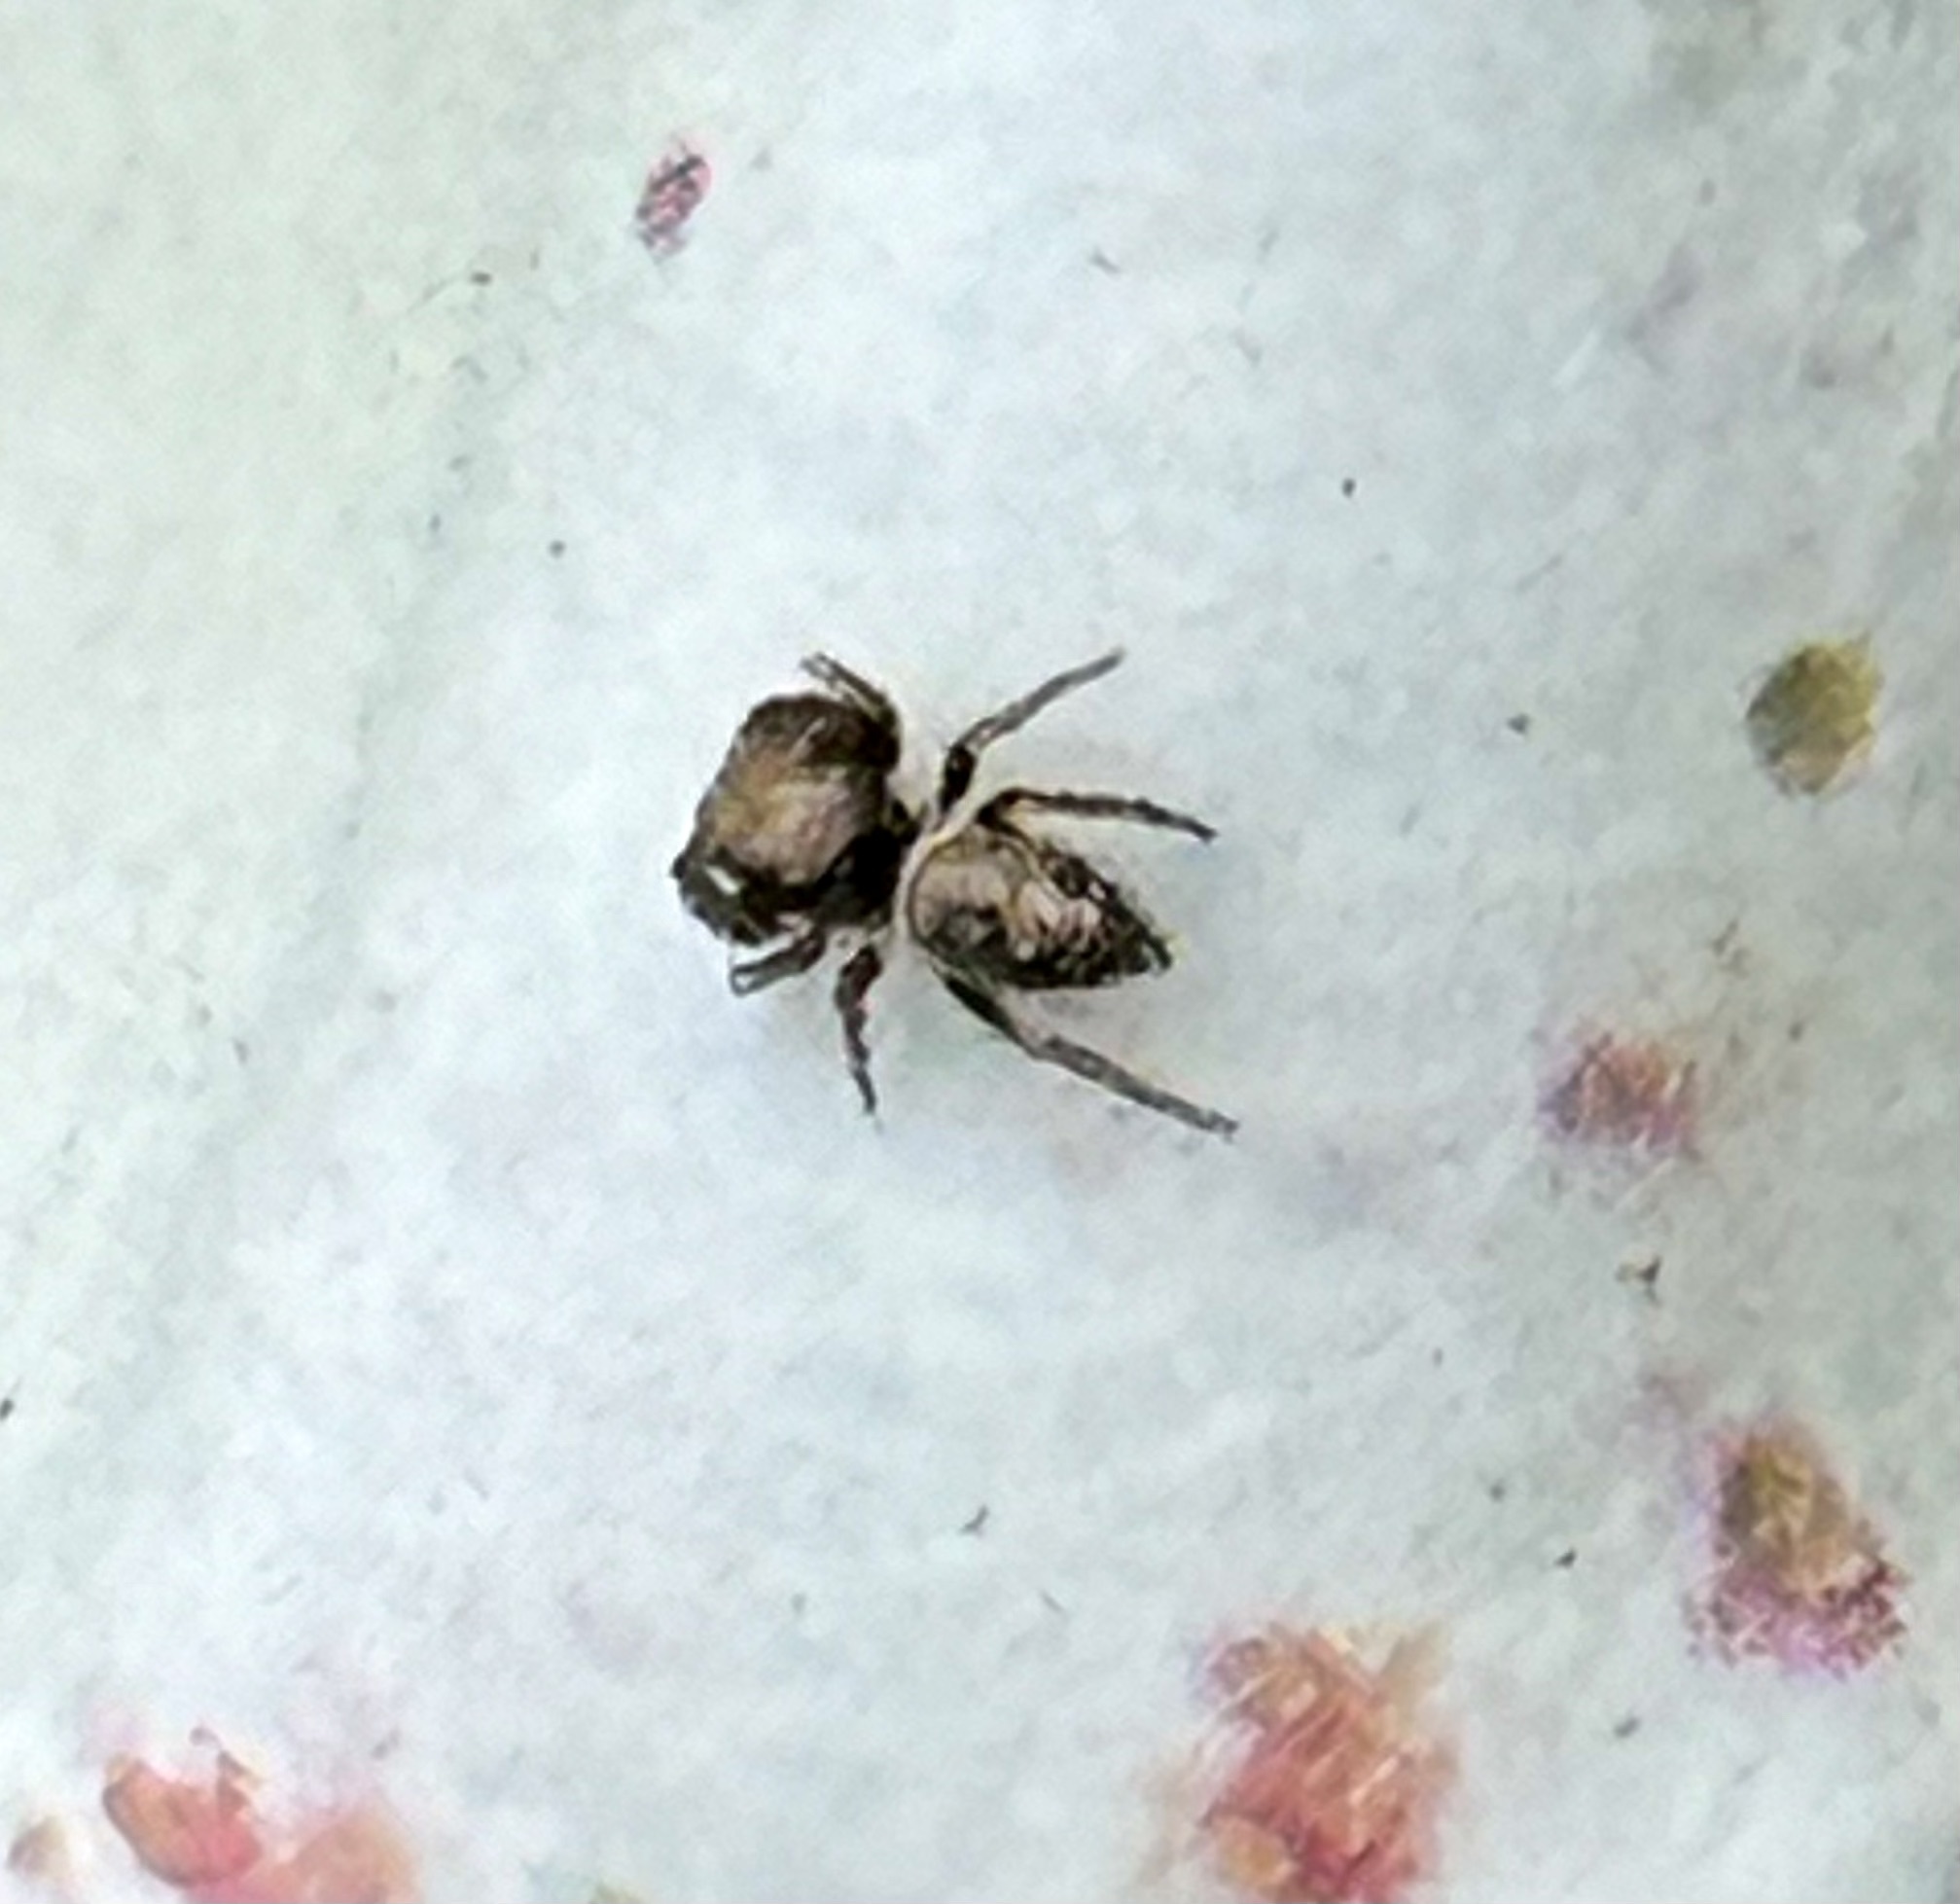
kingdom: Animalia
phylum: Arthropoda
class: Arachnida
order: Araneae
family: Salticidae
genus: Sassacus
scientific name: Sassacus vitis
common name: Jumping spiders
